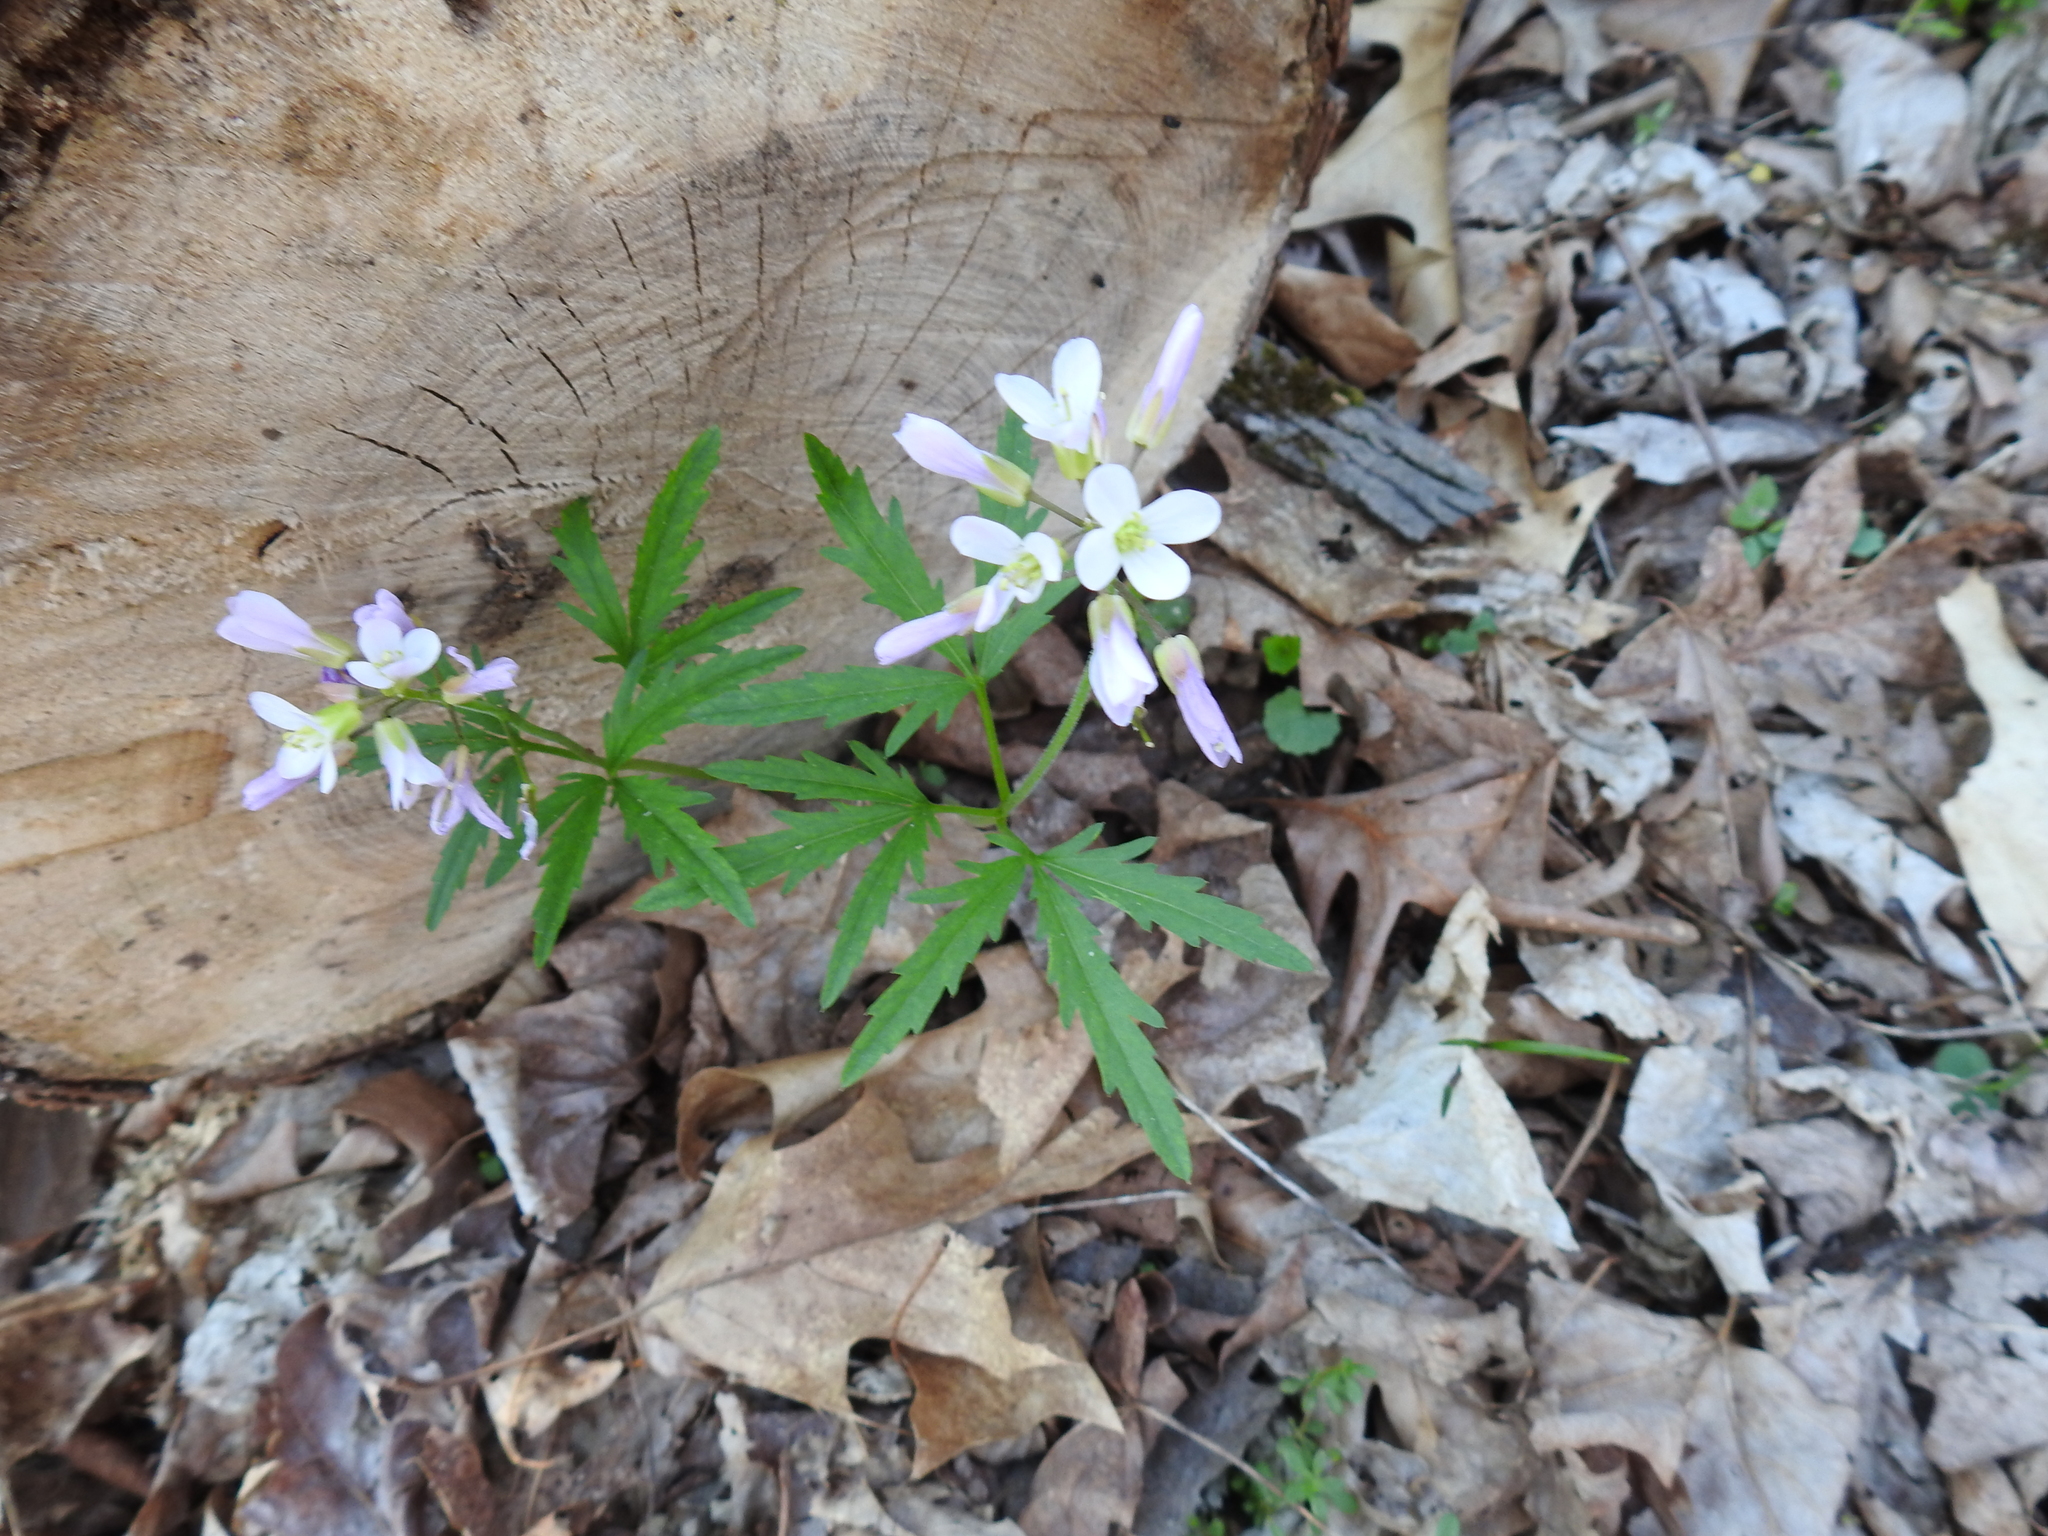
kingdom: Plantae
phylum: Tracheophyta
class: Magnoliopsida
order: Brassicales
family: Brassicaceae
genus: Cardamine
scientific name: Cardamine concatenata
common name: Cut-leaf toothcup
